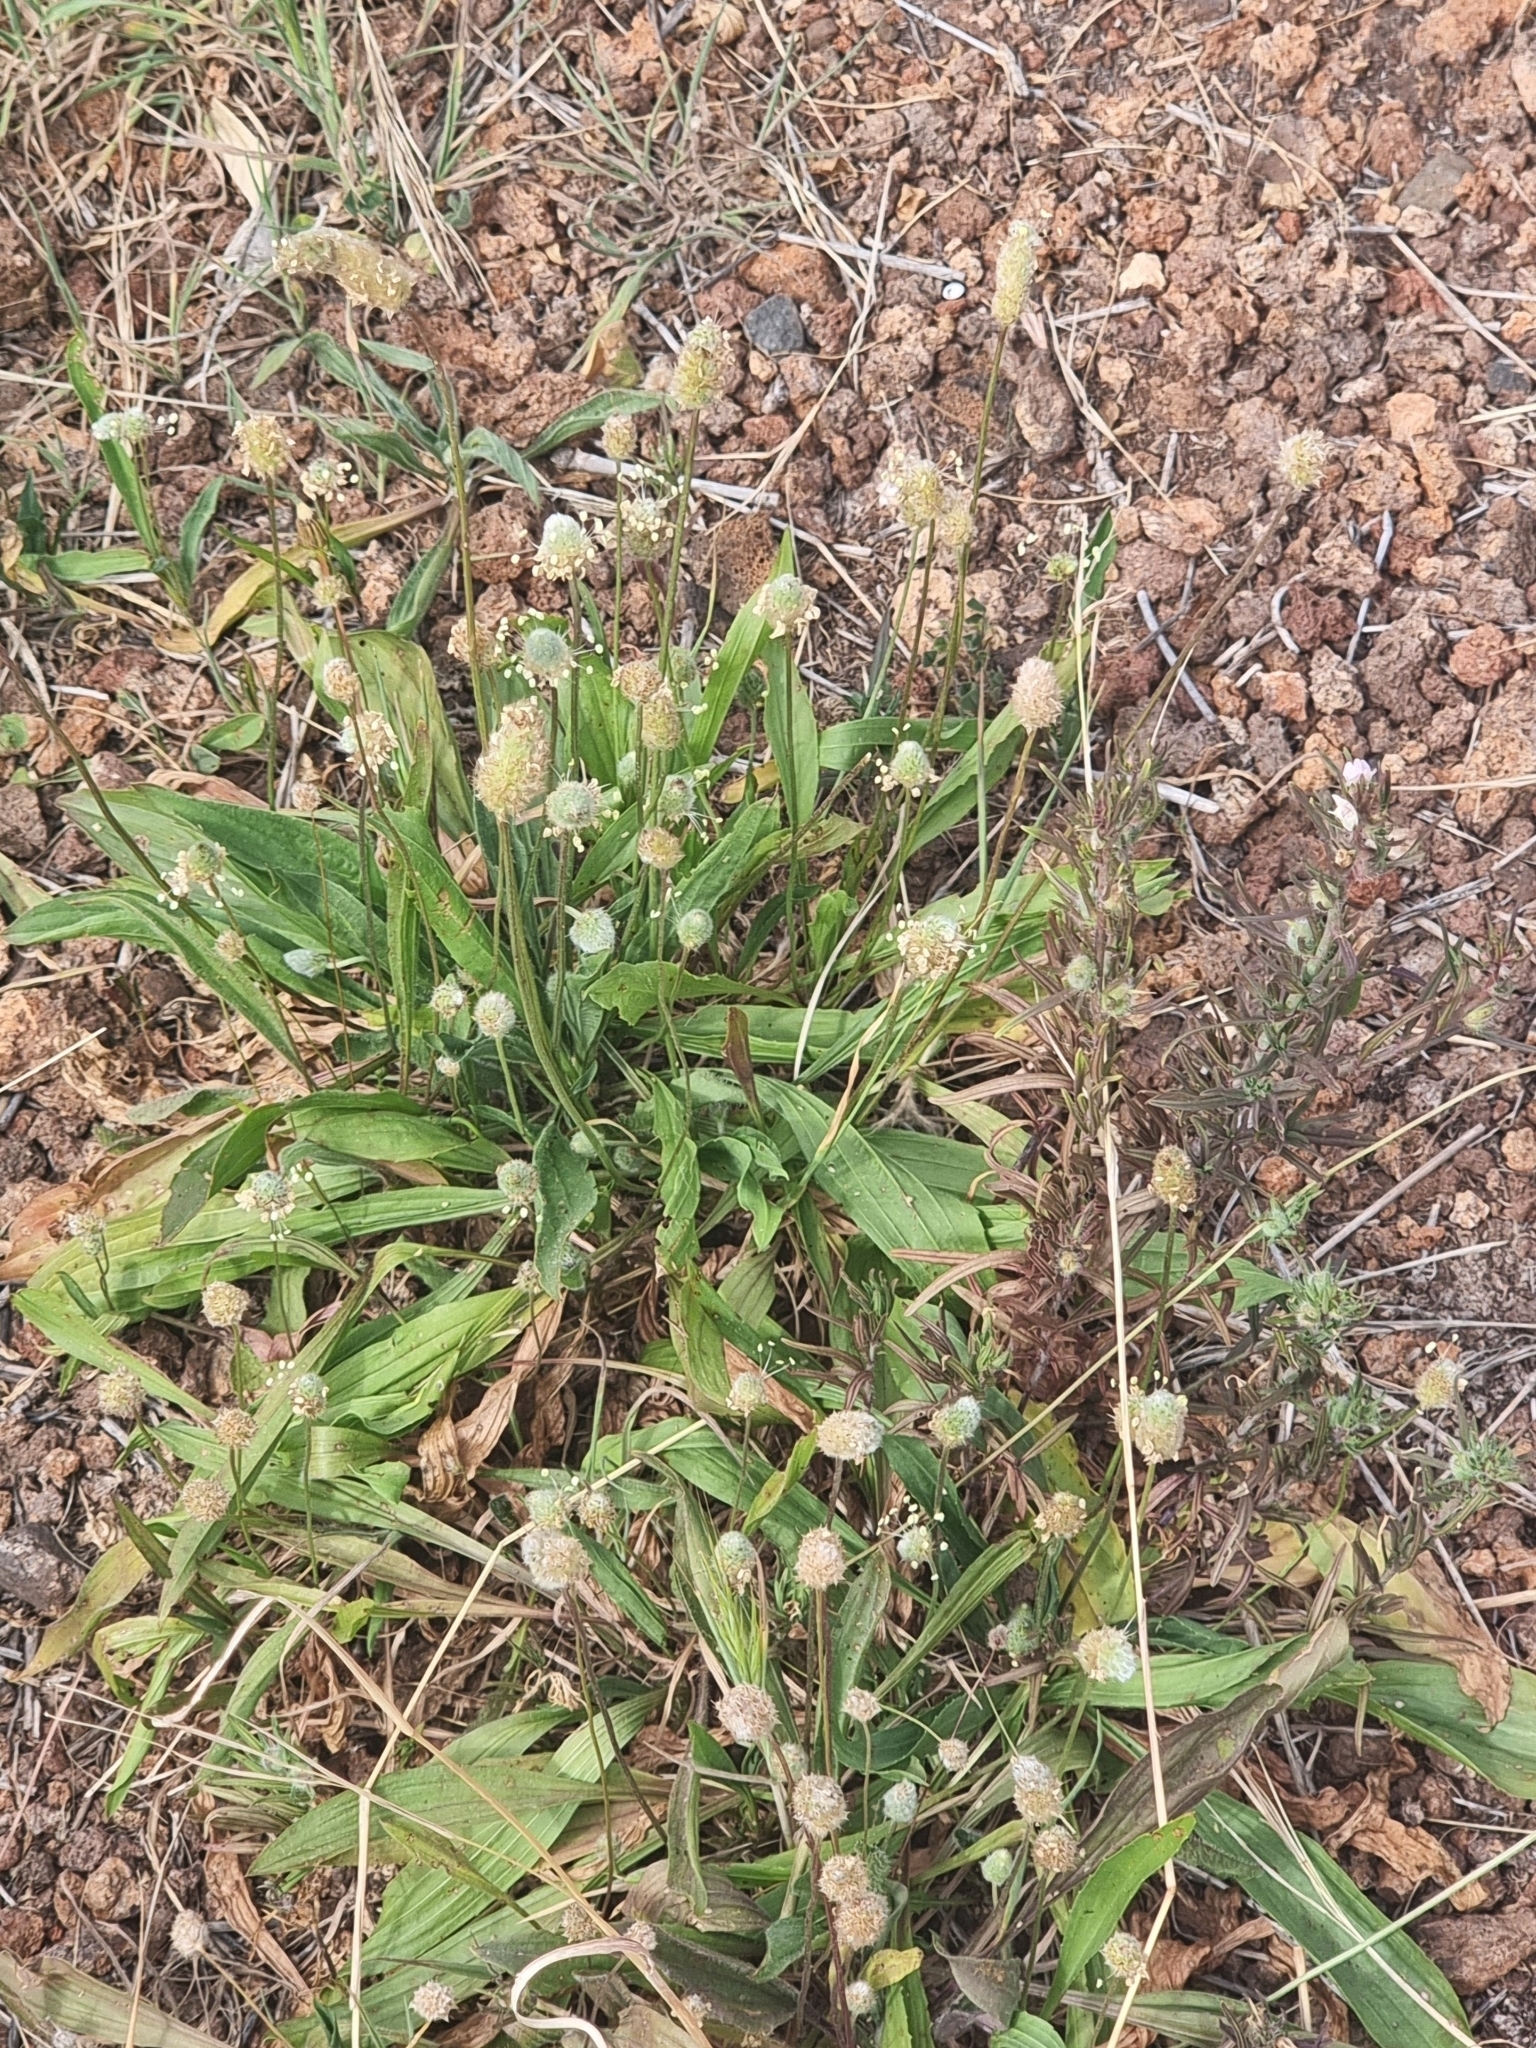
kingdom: Plantae
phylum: Tracheophyta
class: Magnoliopsida
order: Lamiales
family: Plantaginaceae
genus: Plantago
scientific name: Plantago lagopus
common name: Hare-foot plantain
